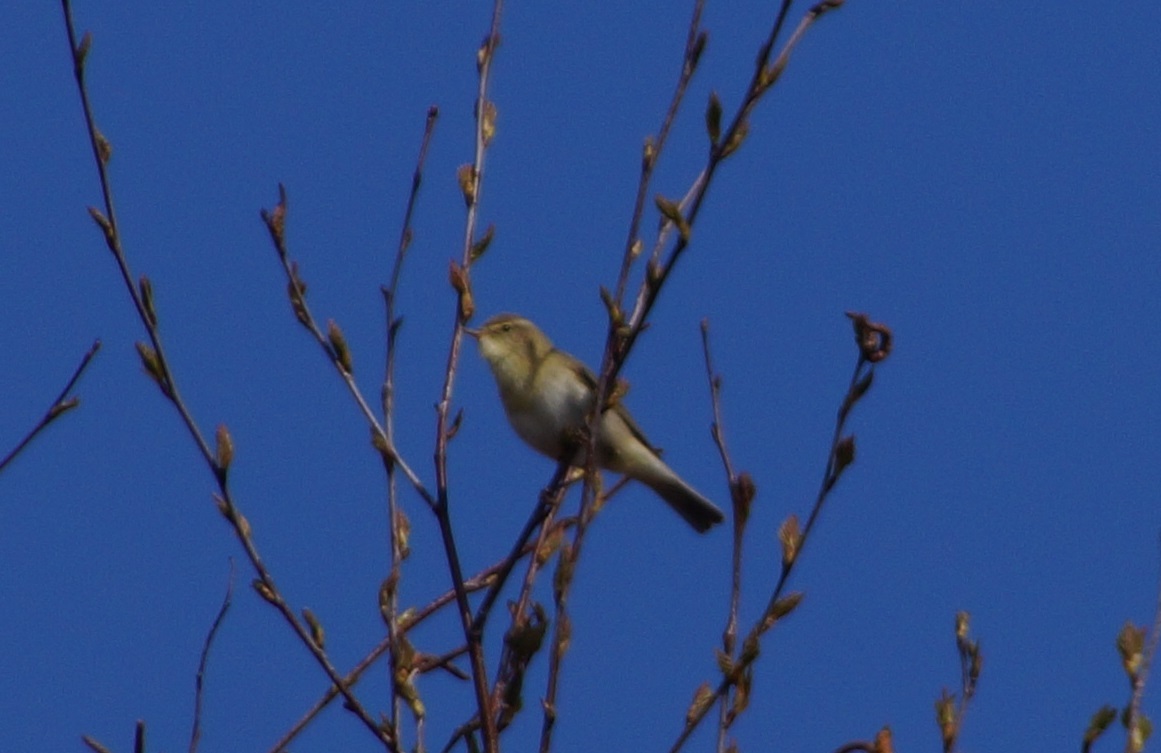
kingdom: Animalia
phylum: Chordata
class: Aves
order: Passeriformes
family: Phylloscopidae
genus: Phylloscopus
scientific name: Phylloscopus trochilus
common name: Willow warbler
